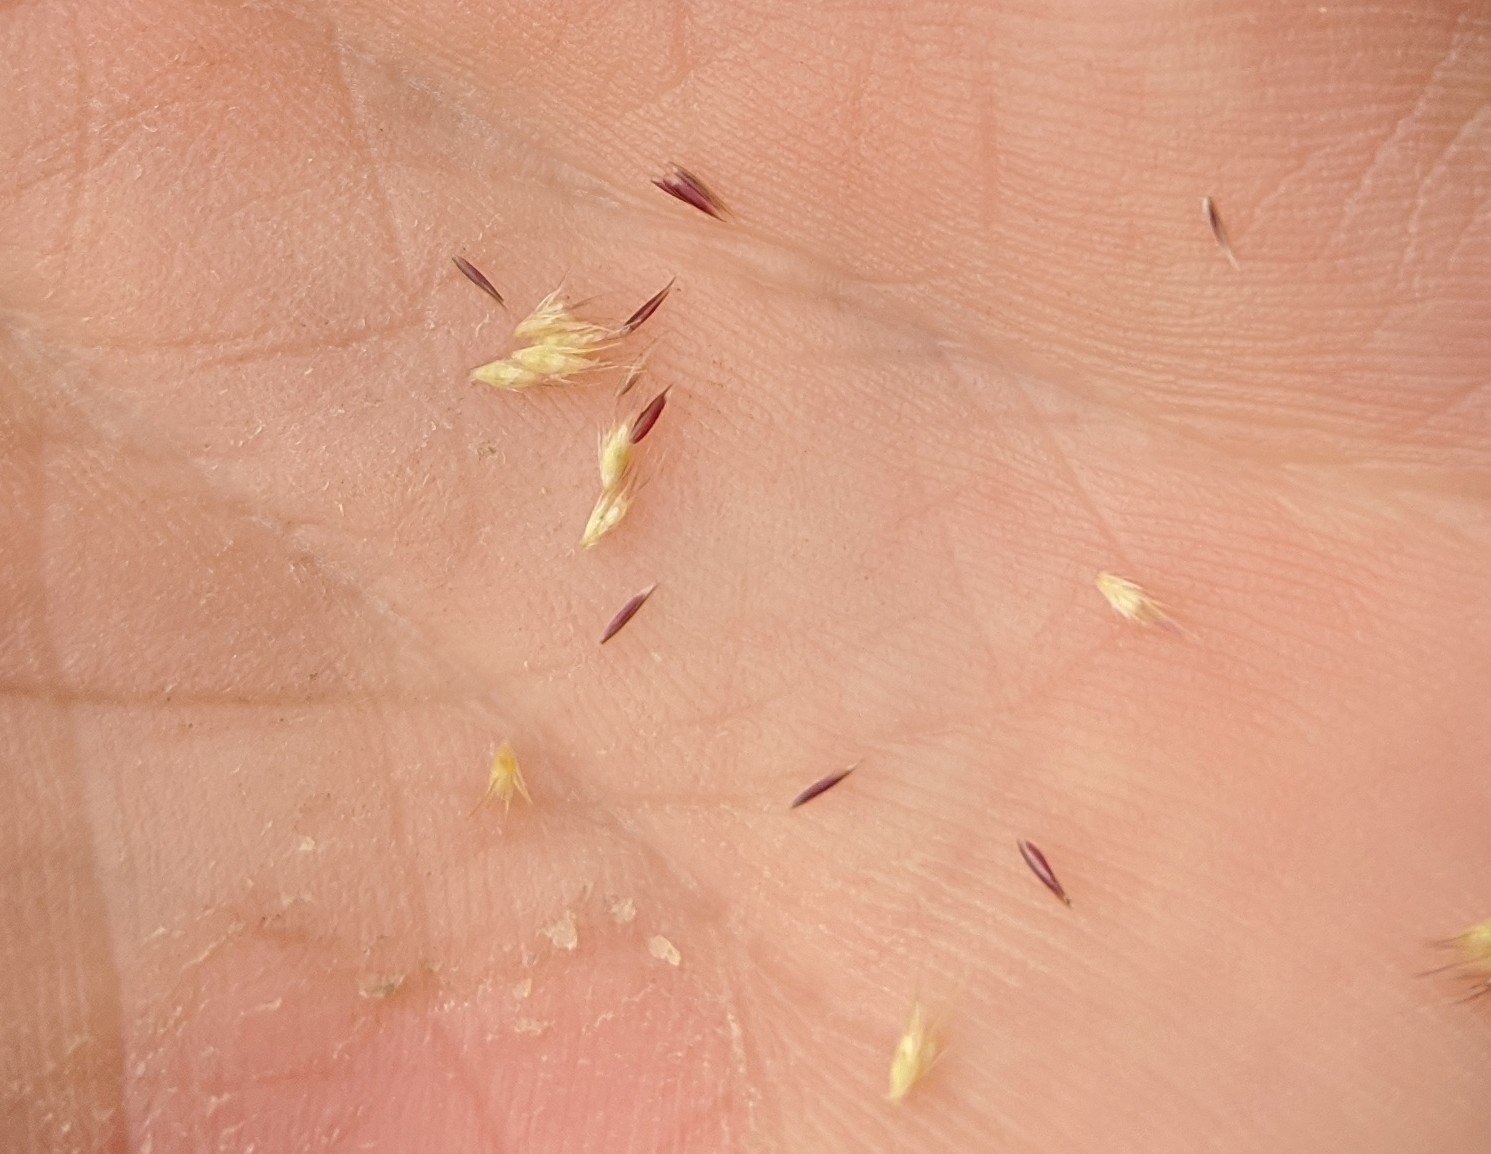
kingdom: Plantae
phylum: Tracheophyta
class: Liliopsida
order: Poales
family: Poaceae
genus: Bouteloua
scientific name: Bouteloua barbata
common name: Six-weeks grama
